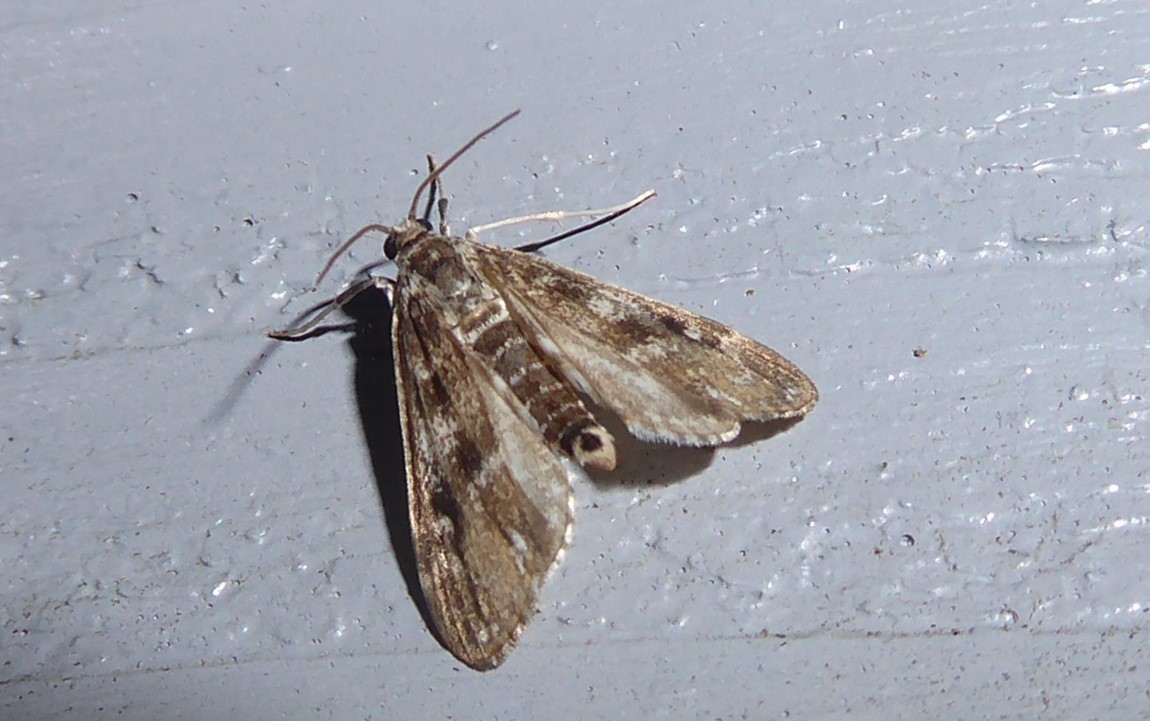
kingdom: Animalia
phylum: Arthropoda
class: Insecta
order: Lepidoptera
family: Crambidae
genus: Hygraula
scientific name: Hygraula nitens
